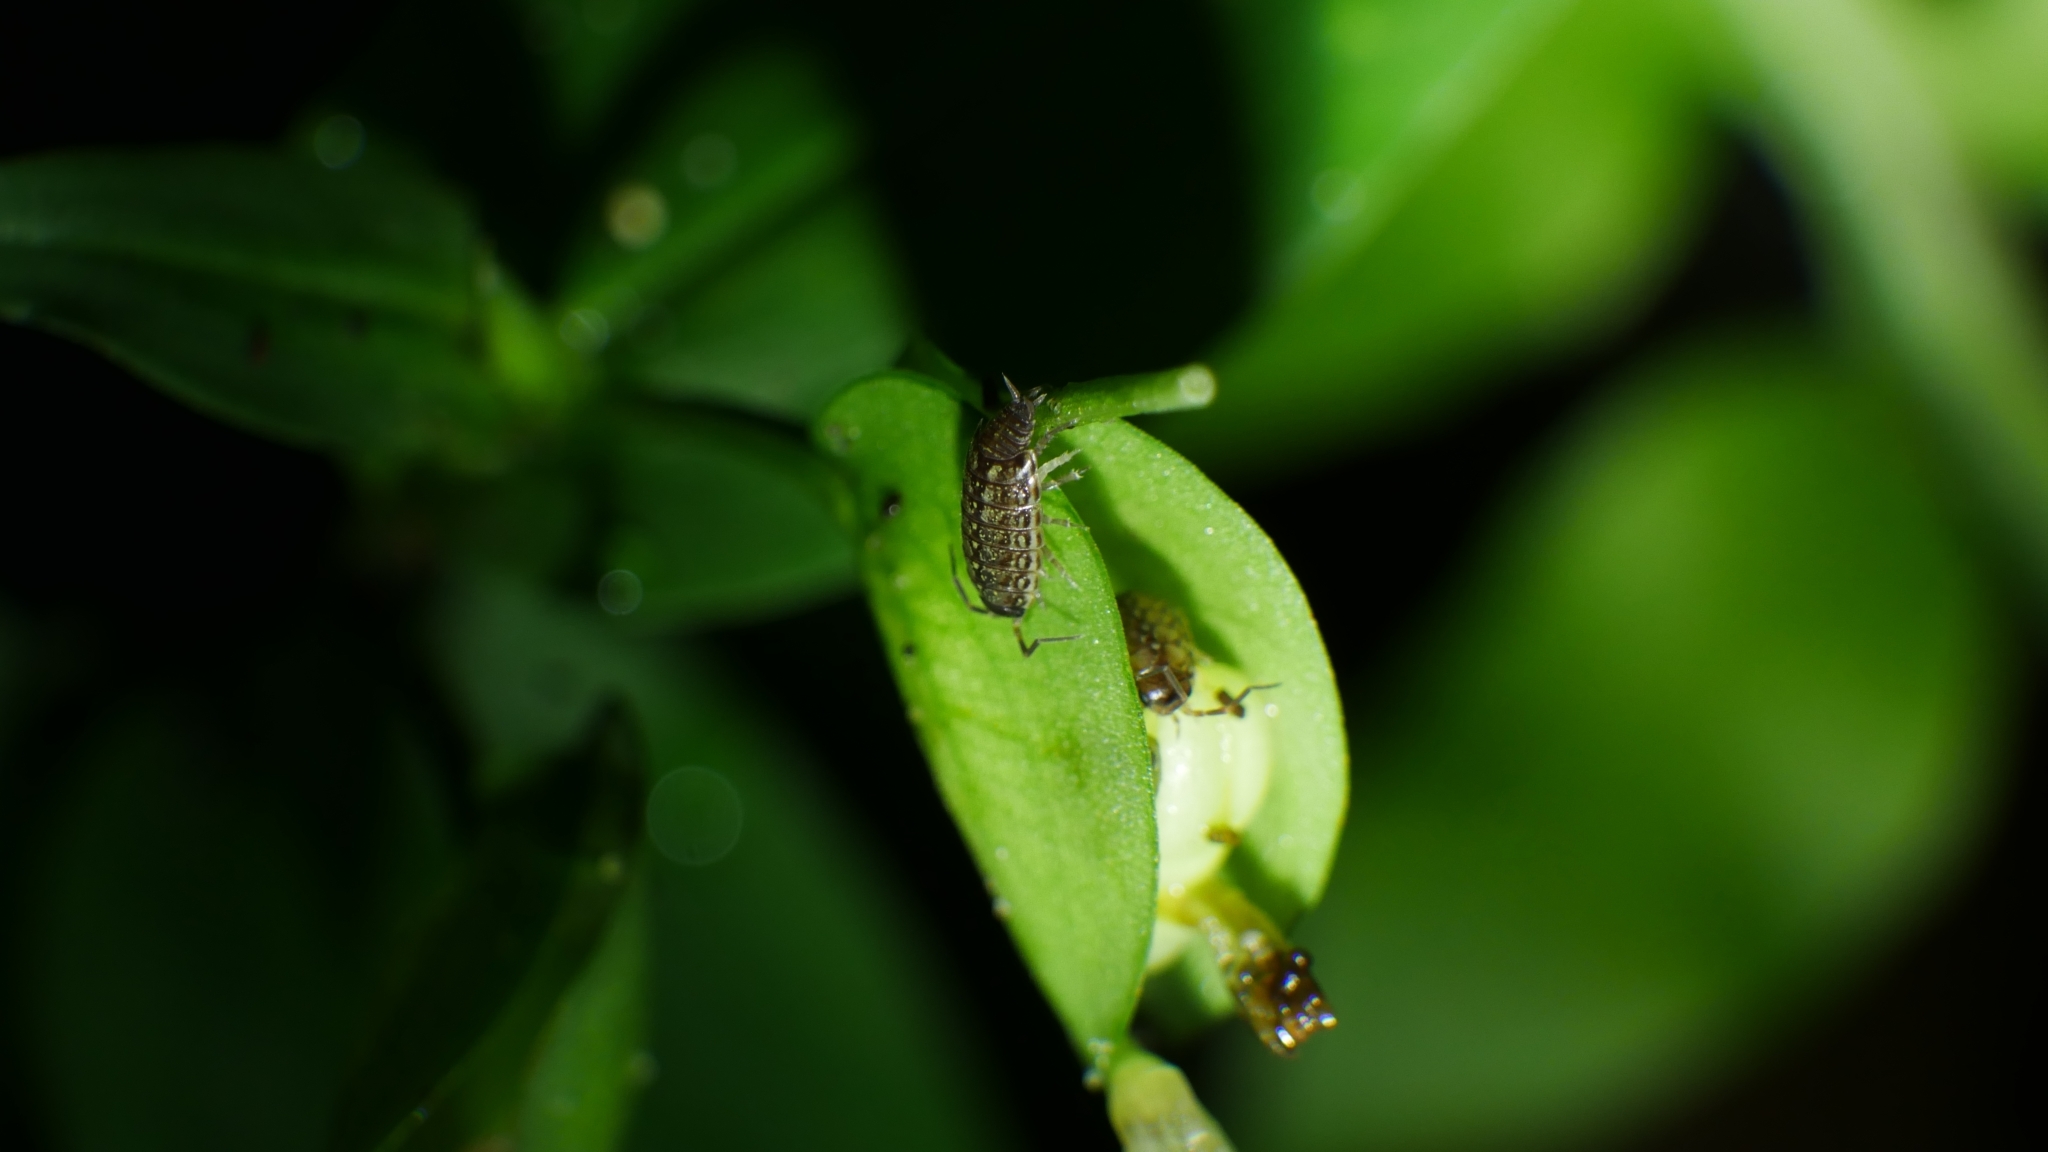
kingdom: Animalia
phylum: Arthropoda
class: Malacostraca
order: Isopoda
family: Philosciidae
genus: Philoscia
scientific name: Philoscia muscorum
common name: Common striped woodlouse
